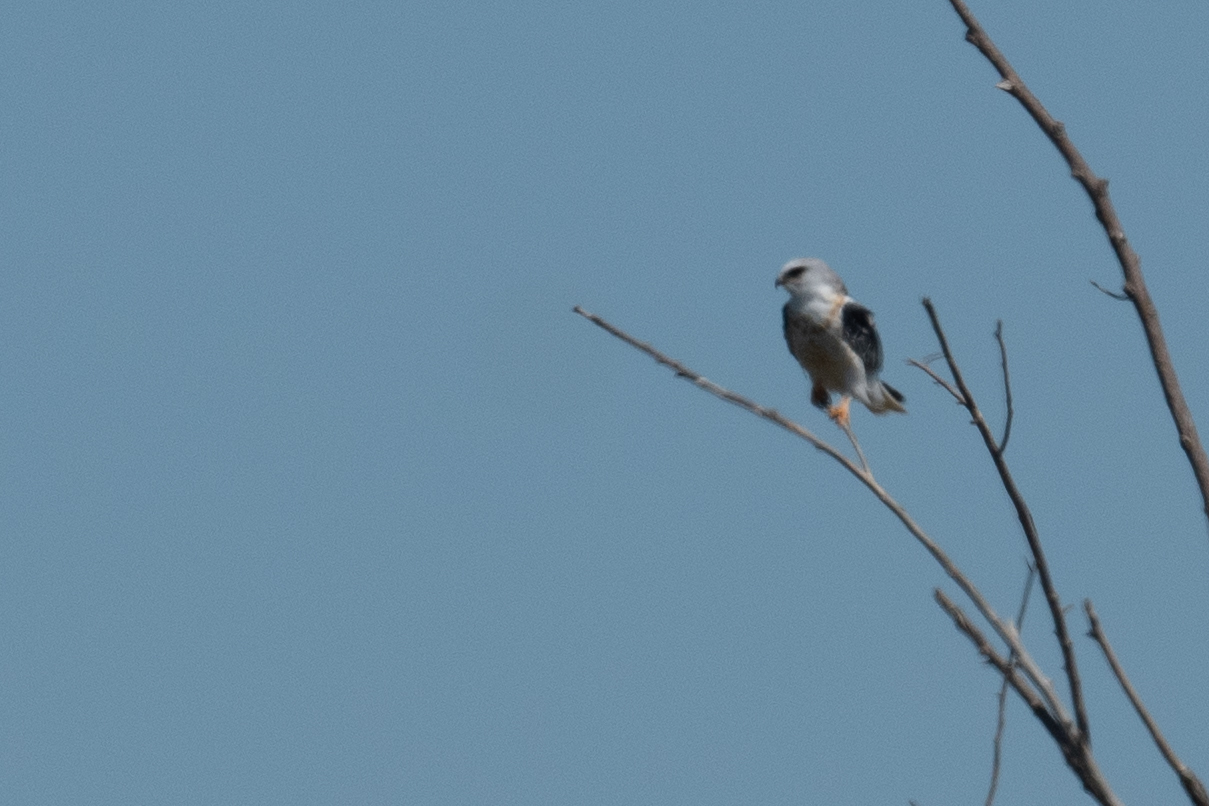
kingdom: Animalia
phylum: Chordata
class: Aves
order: Accipitriformes
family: Accipitridae
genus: Elanus
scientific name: Elanus leucurus
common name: White-tailed kite
